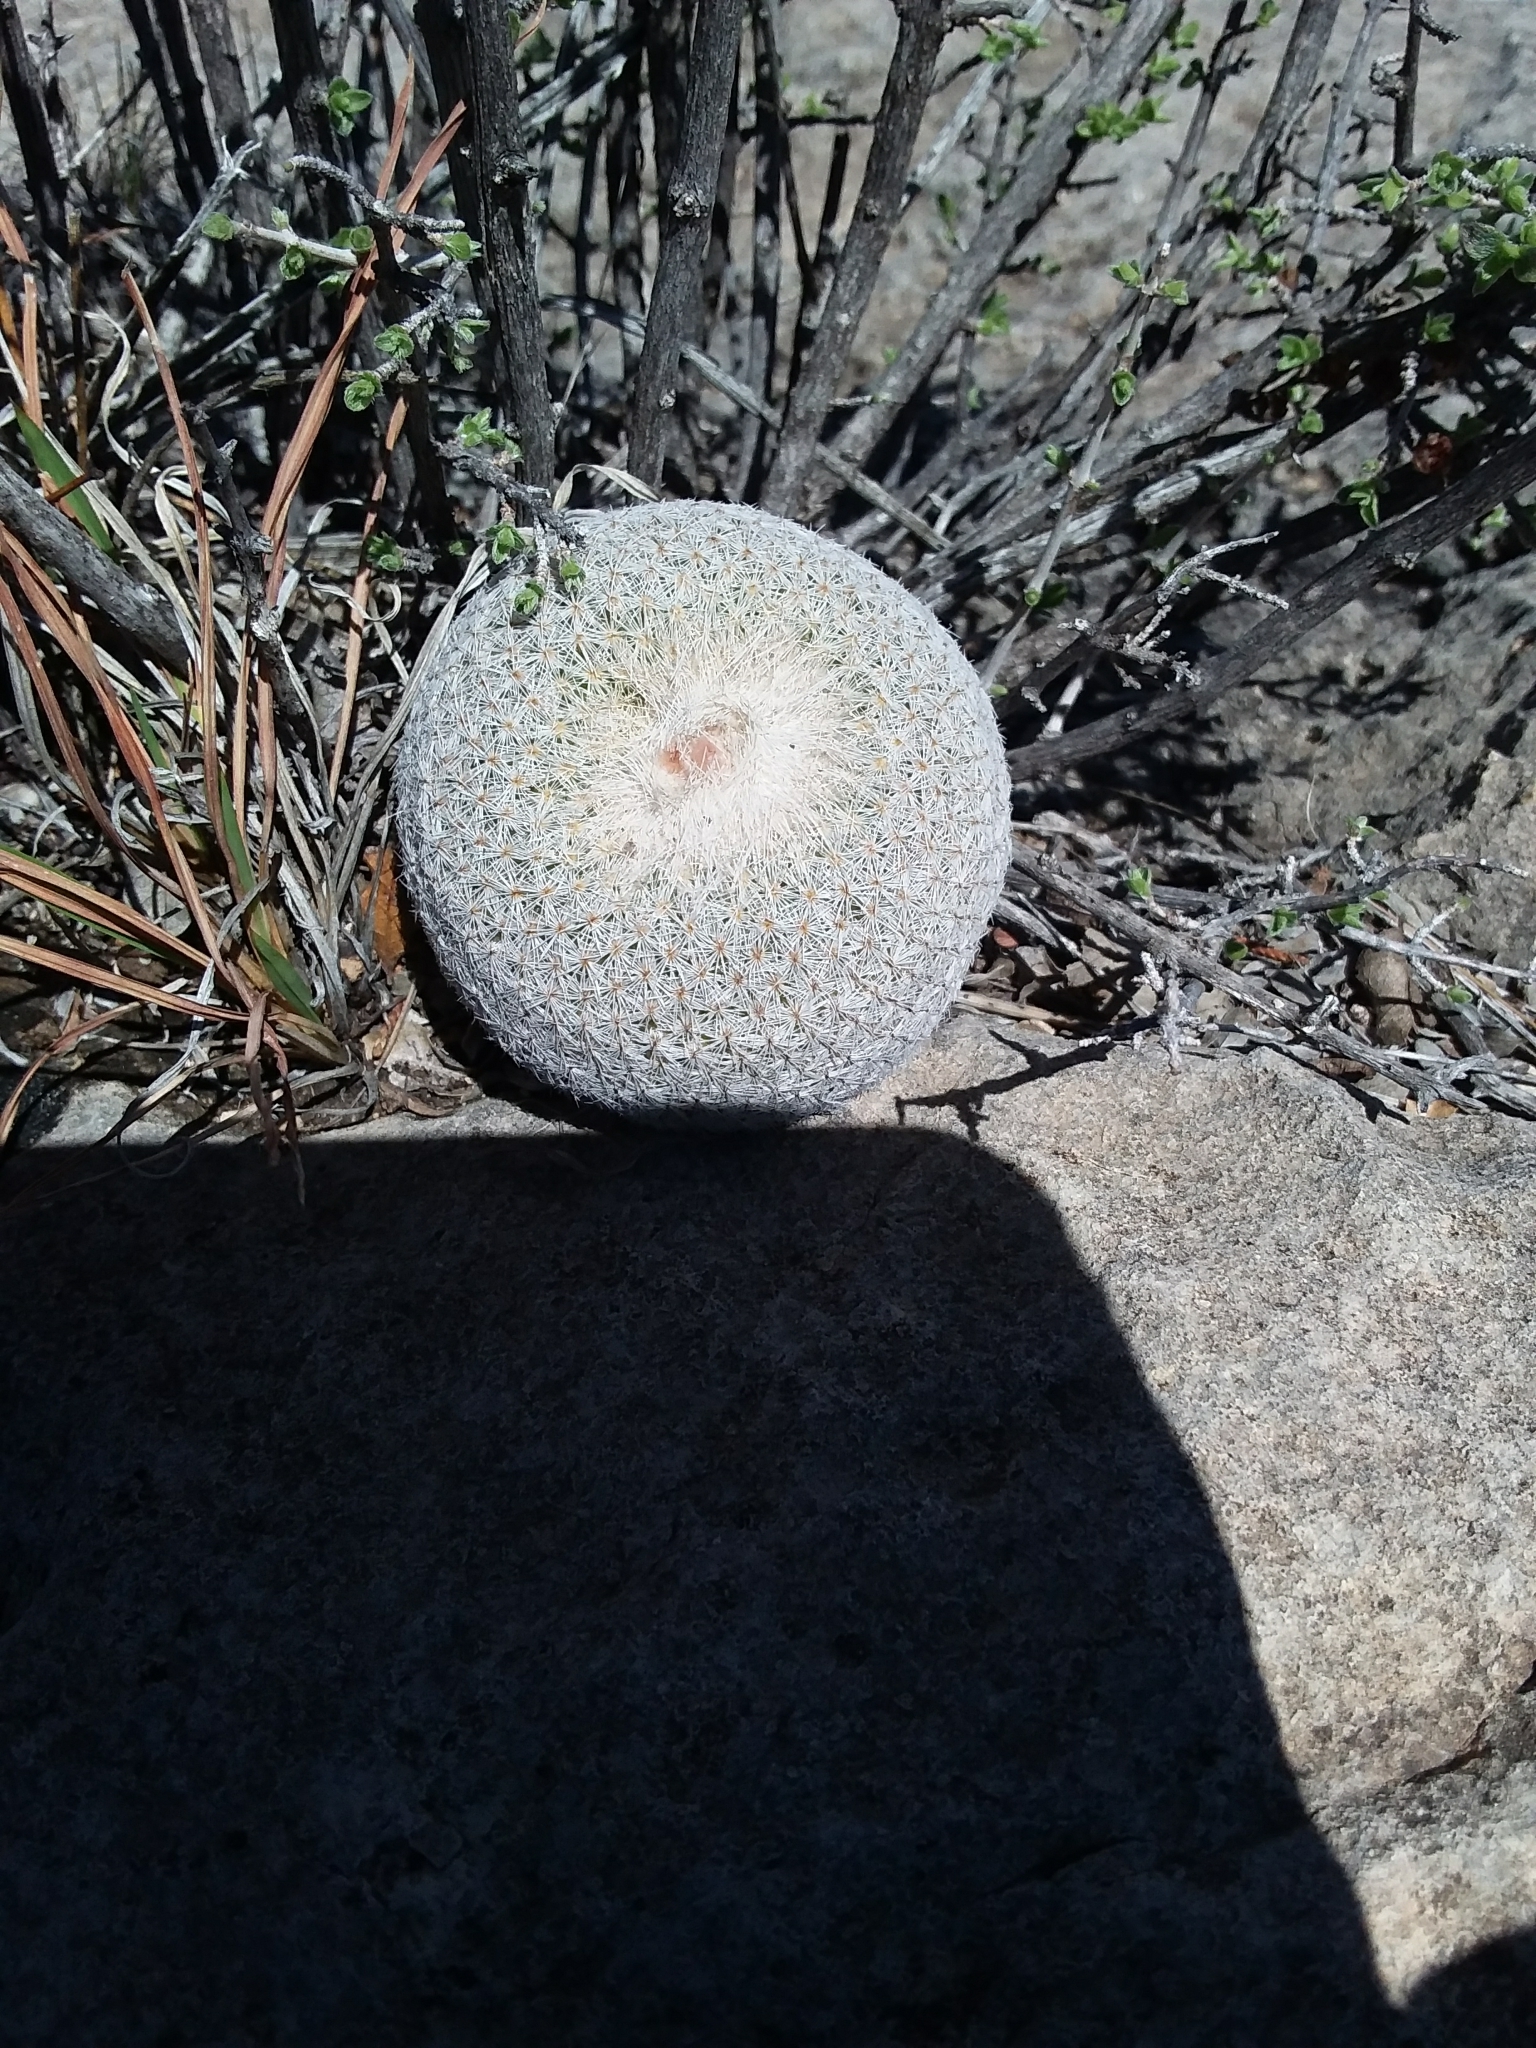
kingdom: Plantae
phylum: Tracheophyta
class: Magnoliopsida
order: Caryophyllales
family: Cactaceae
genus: Epithelantha
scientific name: Epithelantha micromeris
